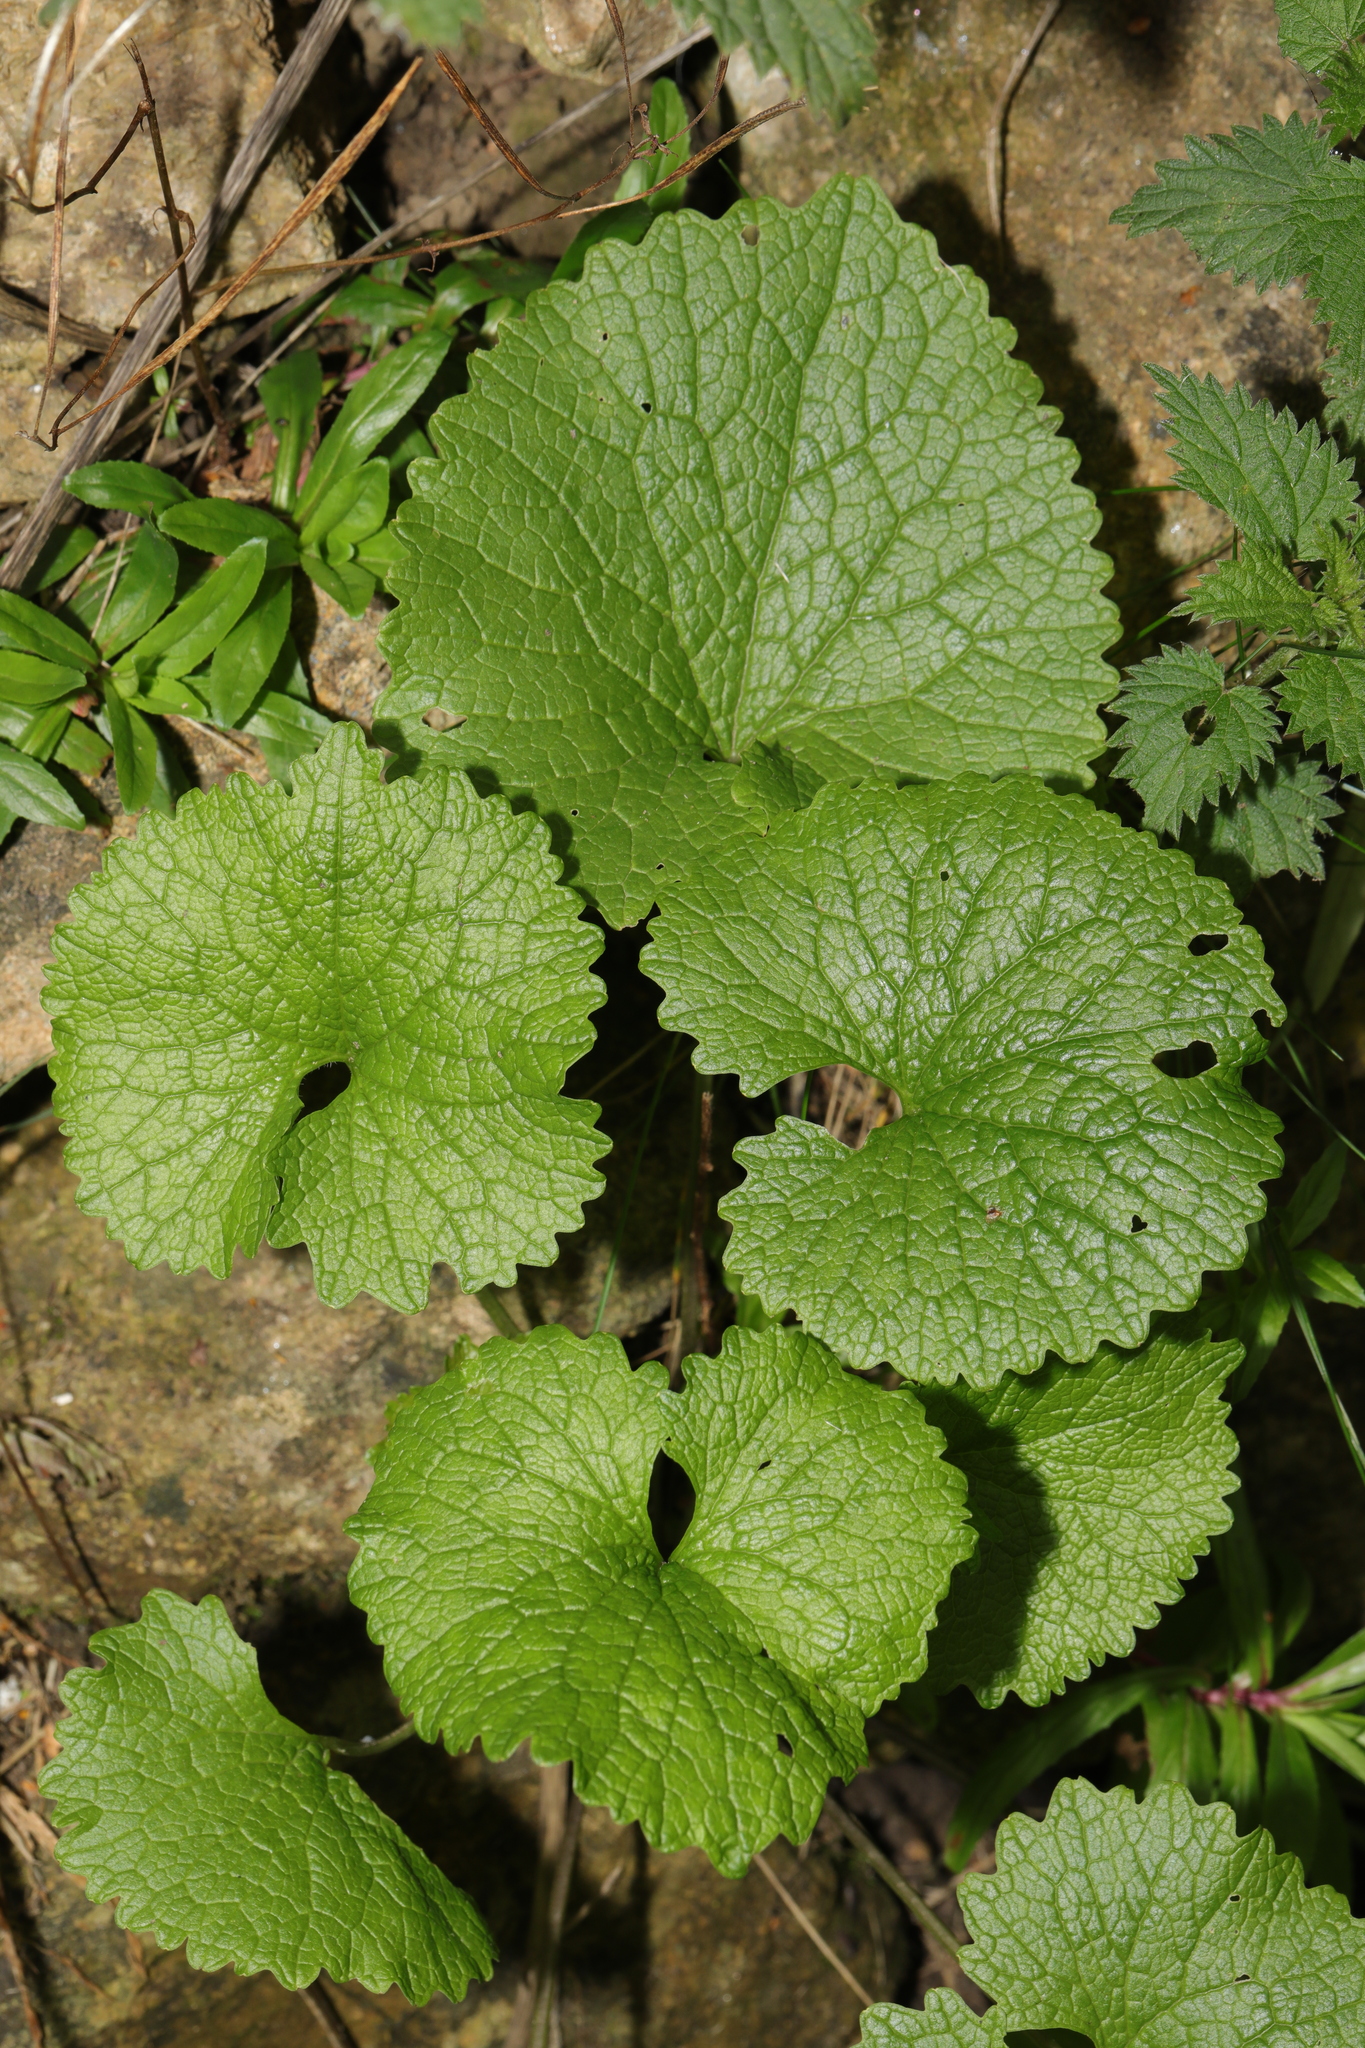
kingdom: Plantae
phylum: Tracheophyta
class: Magnoliopsida
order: Brassicales
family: Brassicaceae
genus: Alliaria
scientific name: Alliaria petiolata
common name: Garlic mustard
